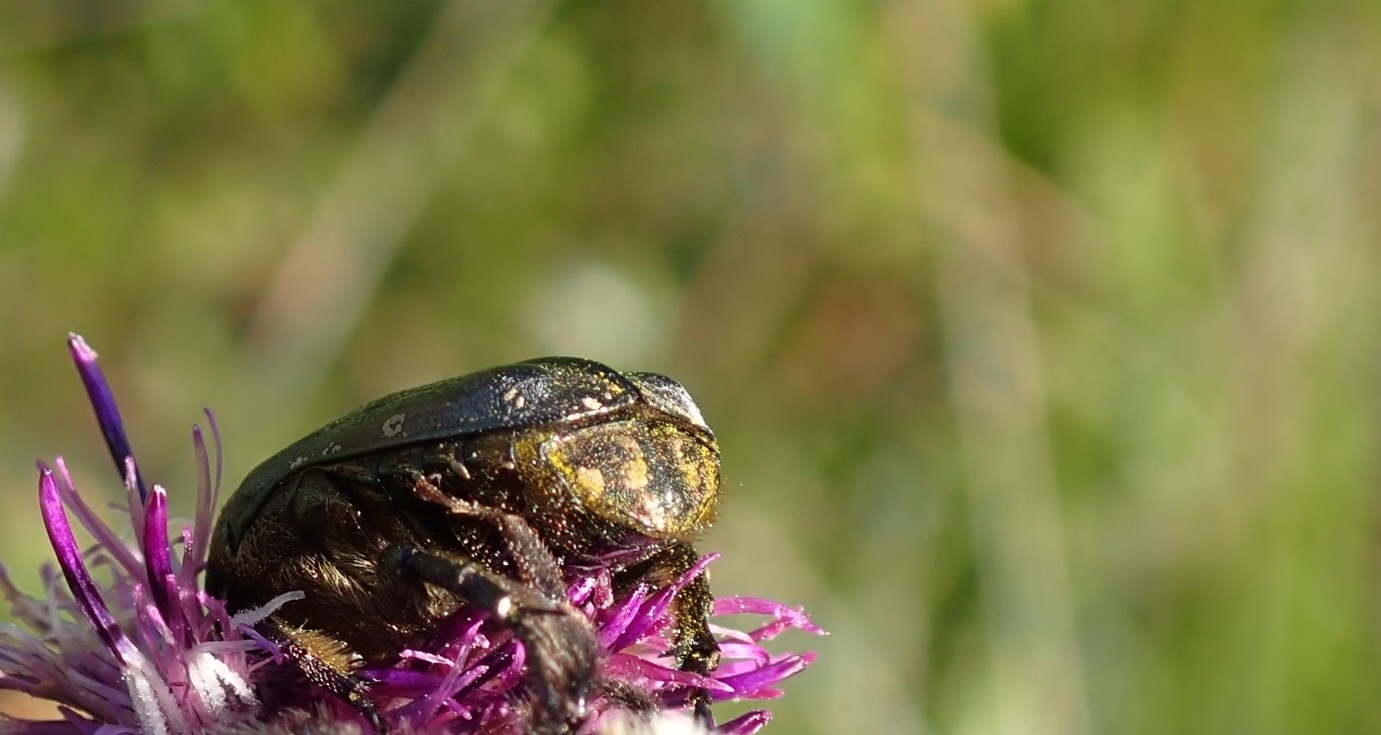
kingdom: Animalia
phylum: Arthropoda
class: Insecta
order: Coleoptera
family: Scarabaeidae
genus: Protaetia
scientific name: Protaetia cuprea
